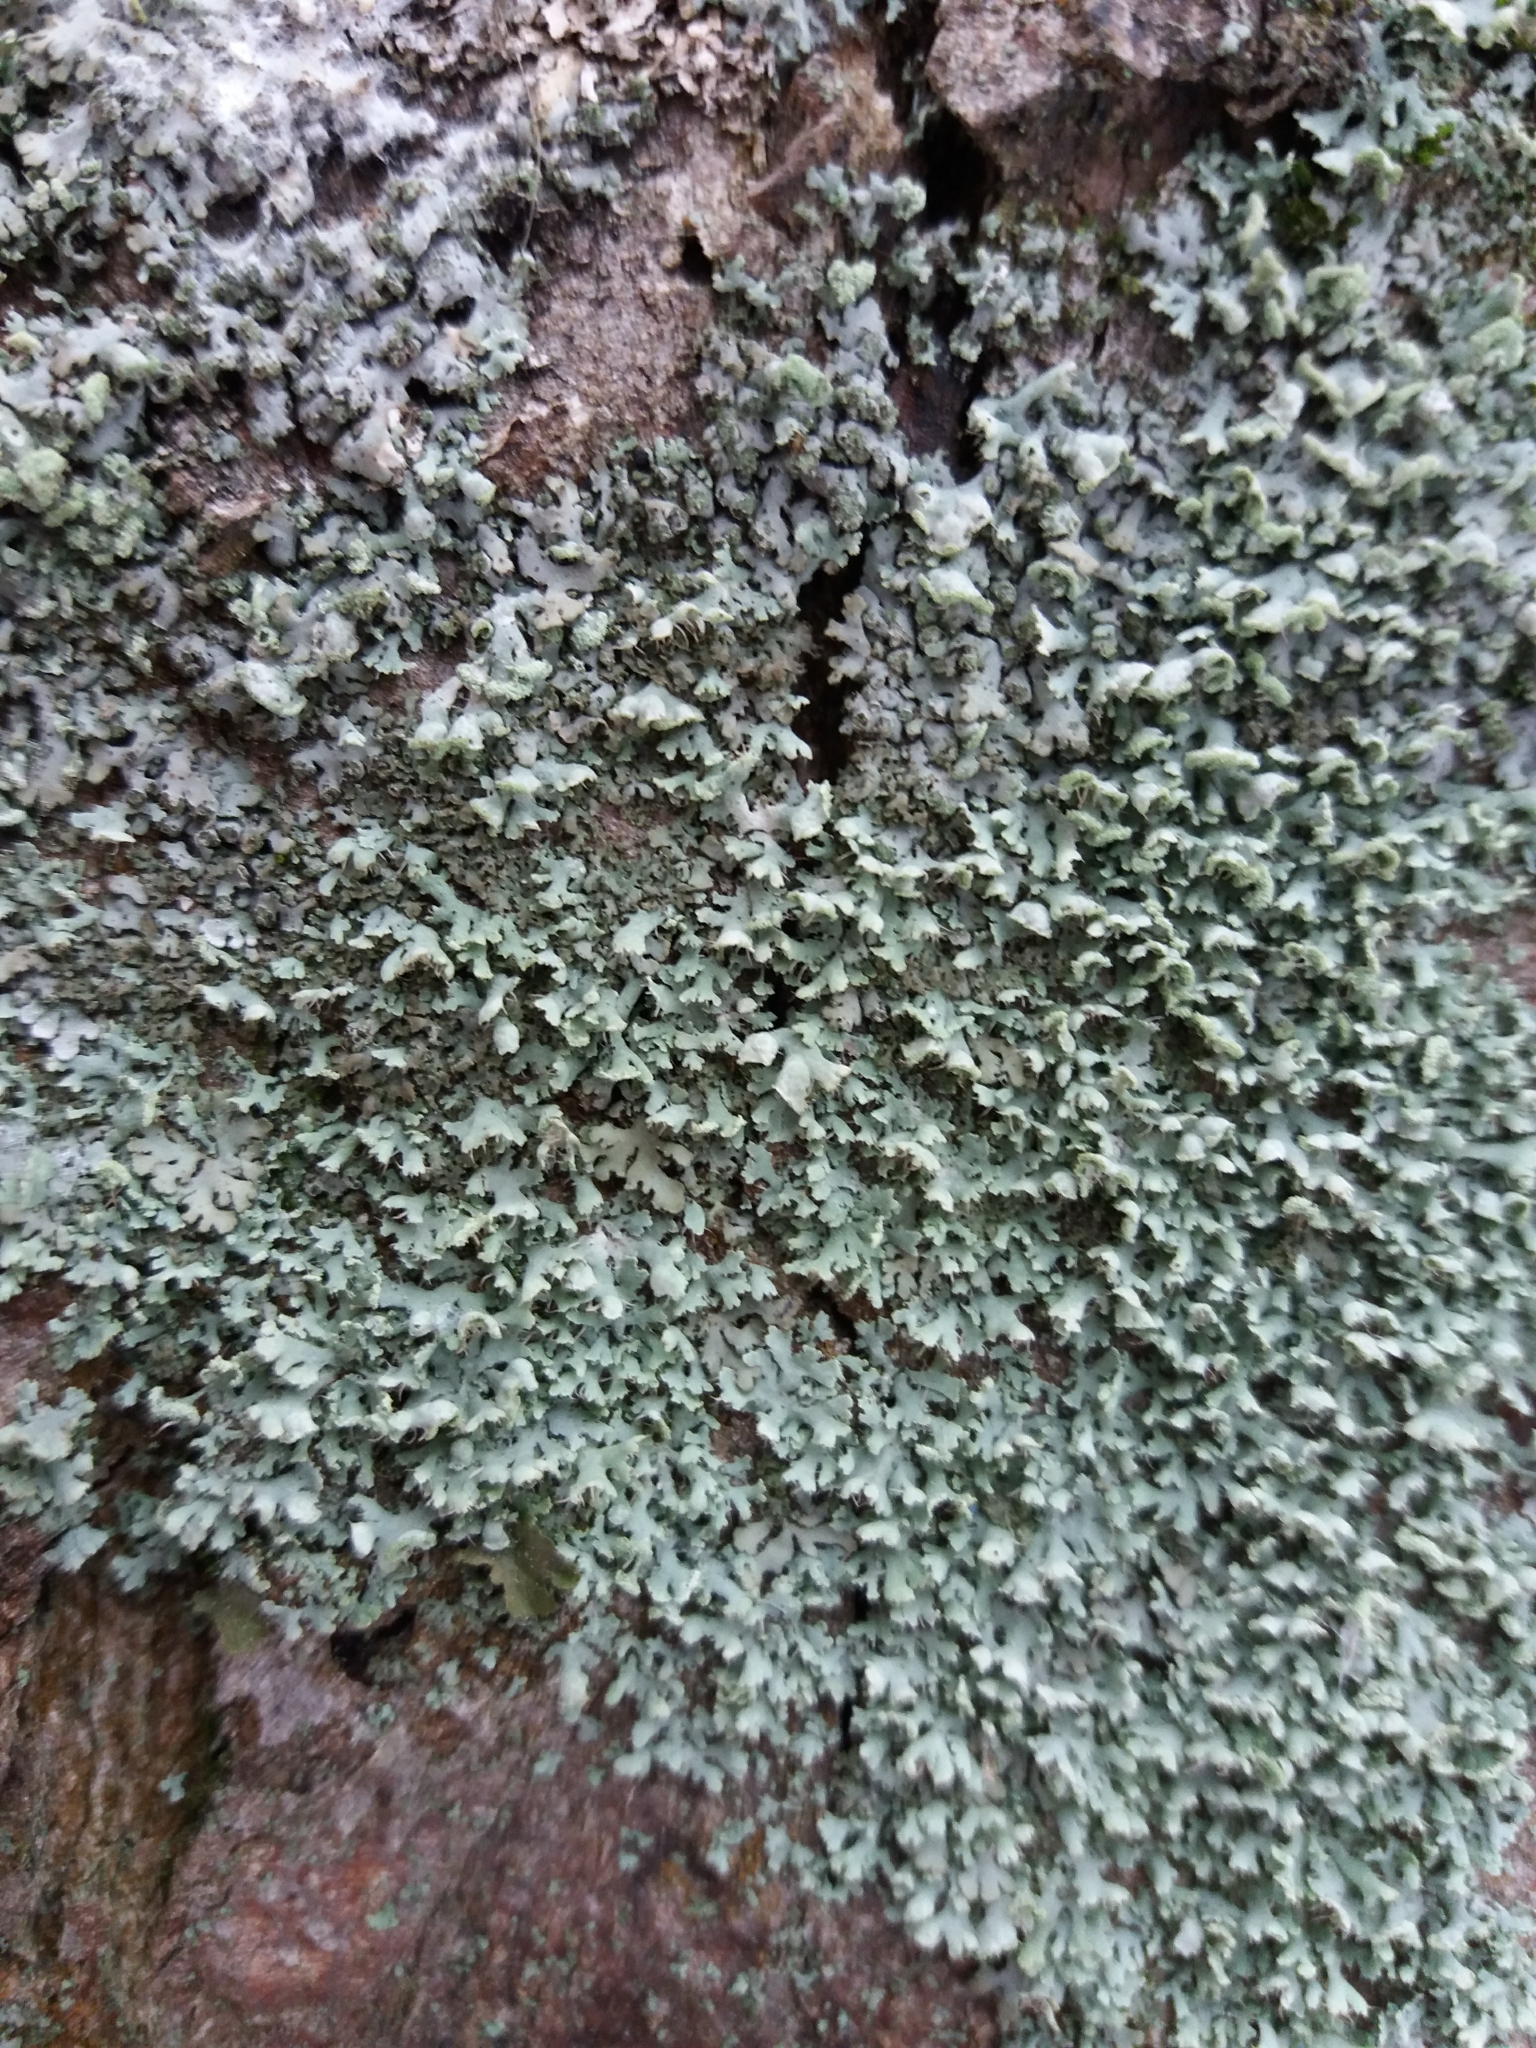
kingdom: Fungi
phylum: Ascomycota
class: Lecanoromycetes
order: Caliciales
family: Physciaceae
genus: Physcia
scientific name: Physcia adscendens
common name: Hooded rosette lichen
